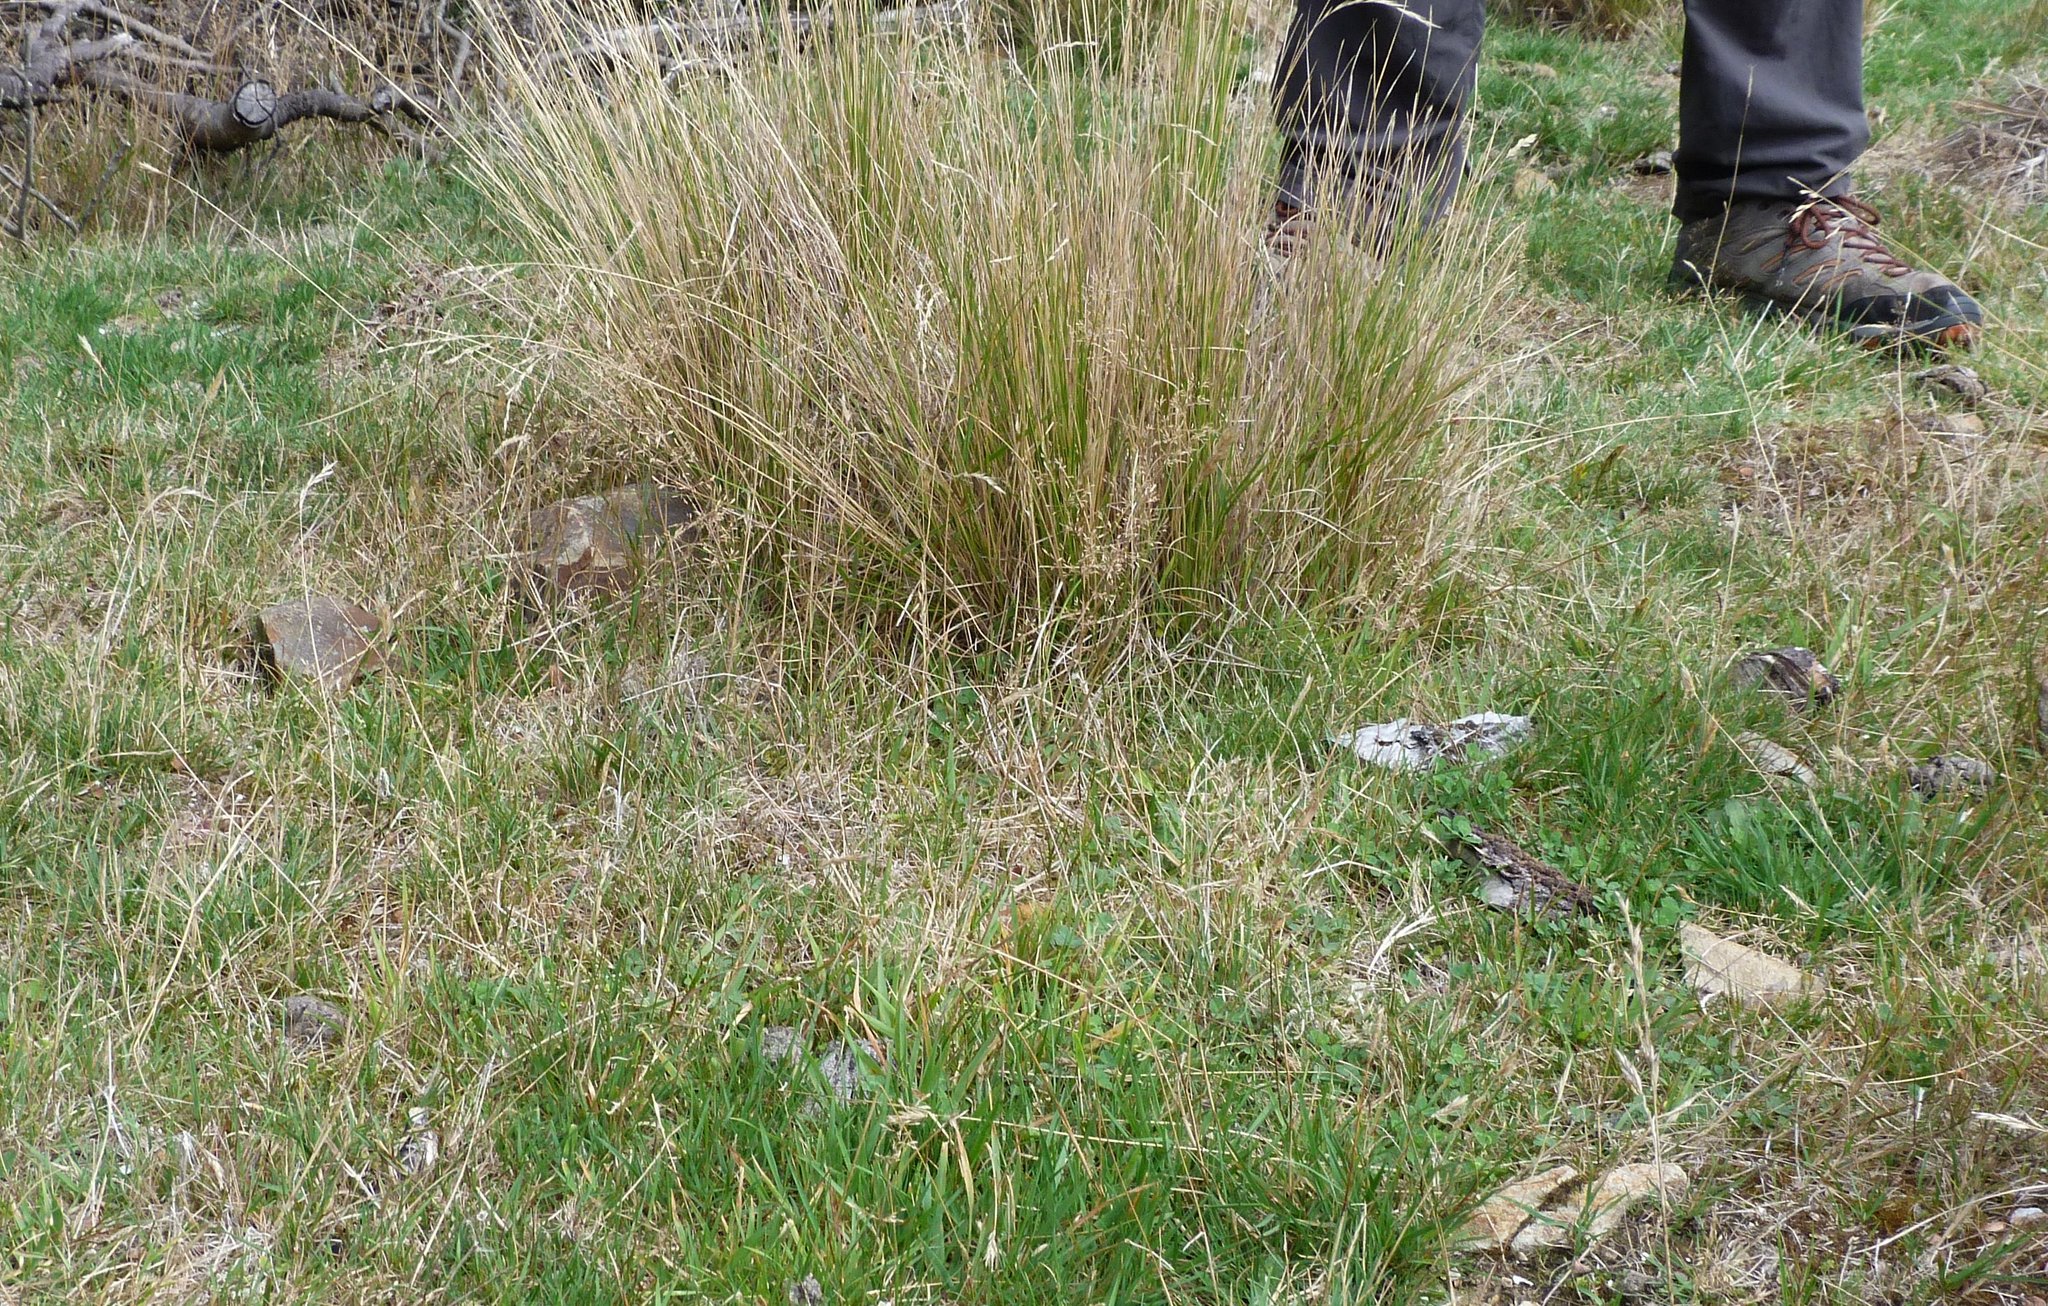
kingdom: Plantae
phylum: Tracheophyta
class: Liliopsida
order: Poales
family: Poaceae
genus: Agrostis
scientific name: Agrostis capillaris
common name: Colonial bentgrass
